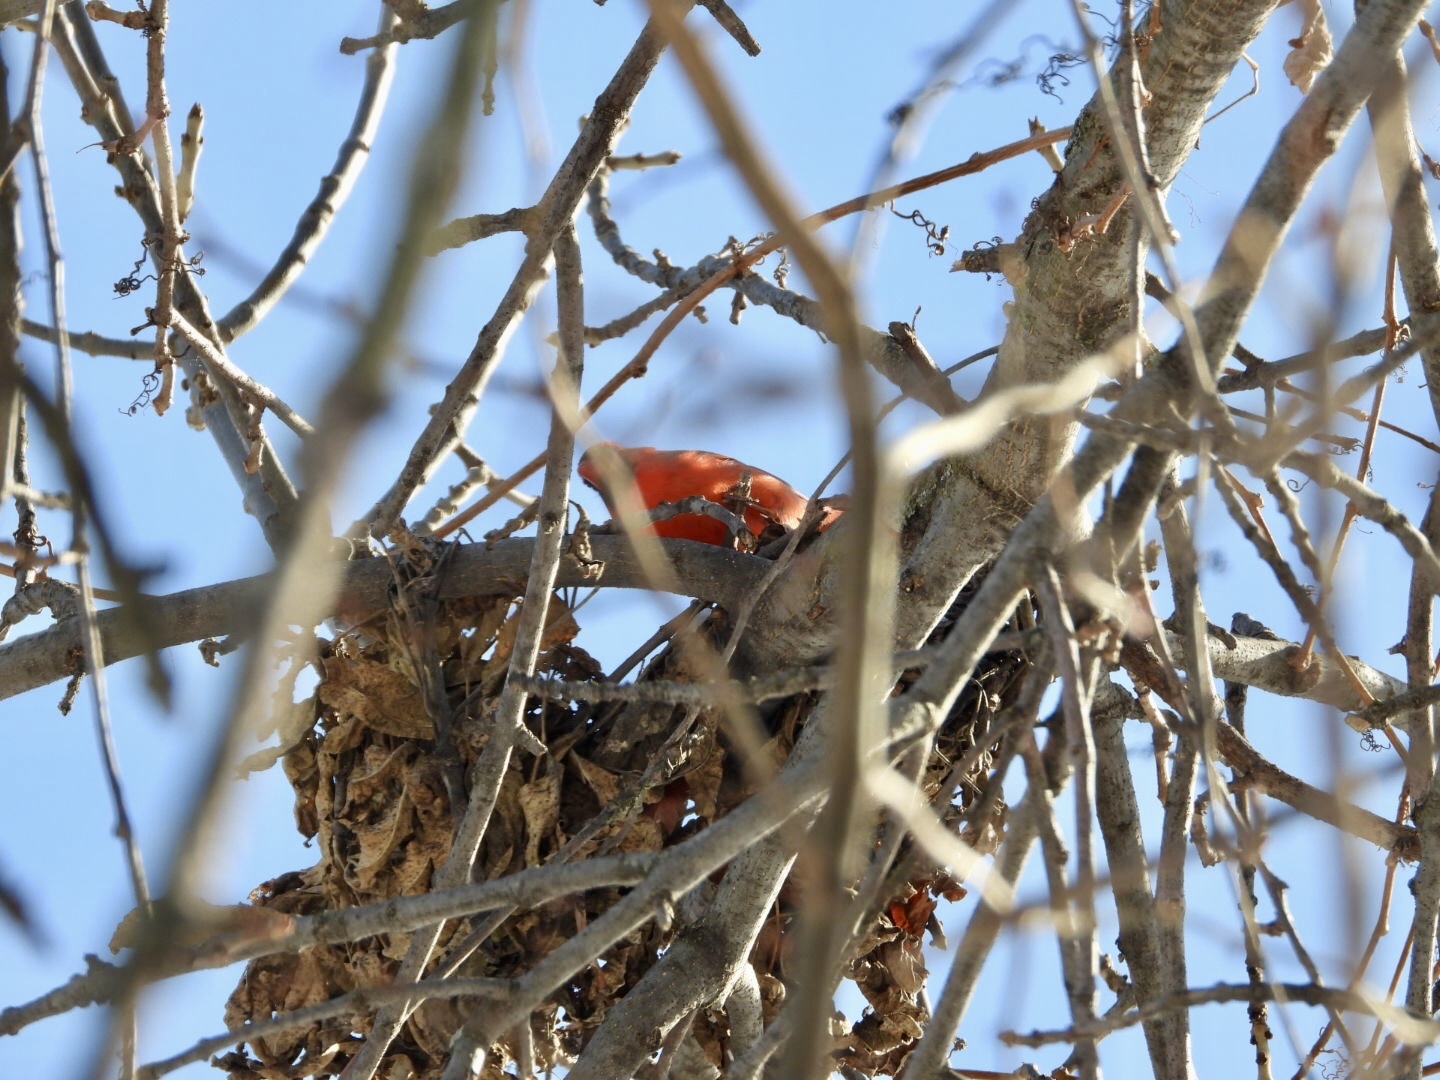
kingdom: Animalia
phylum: Chordata
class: Aves
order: Passeriformes
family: Cardinalidae
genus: Cardinalis
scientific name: Cardinalis cardinalis
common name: Northern cardinal
